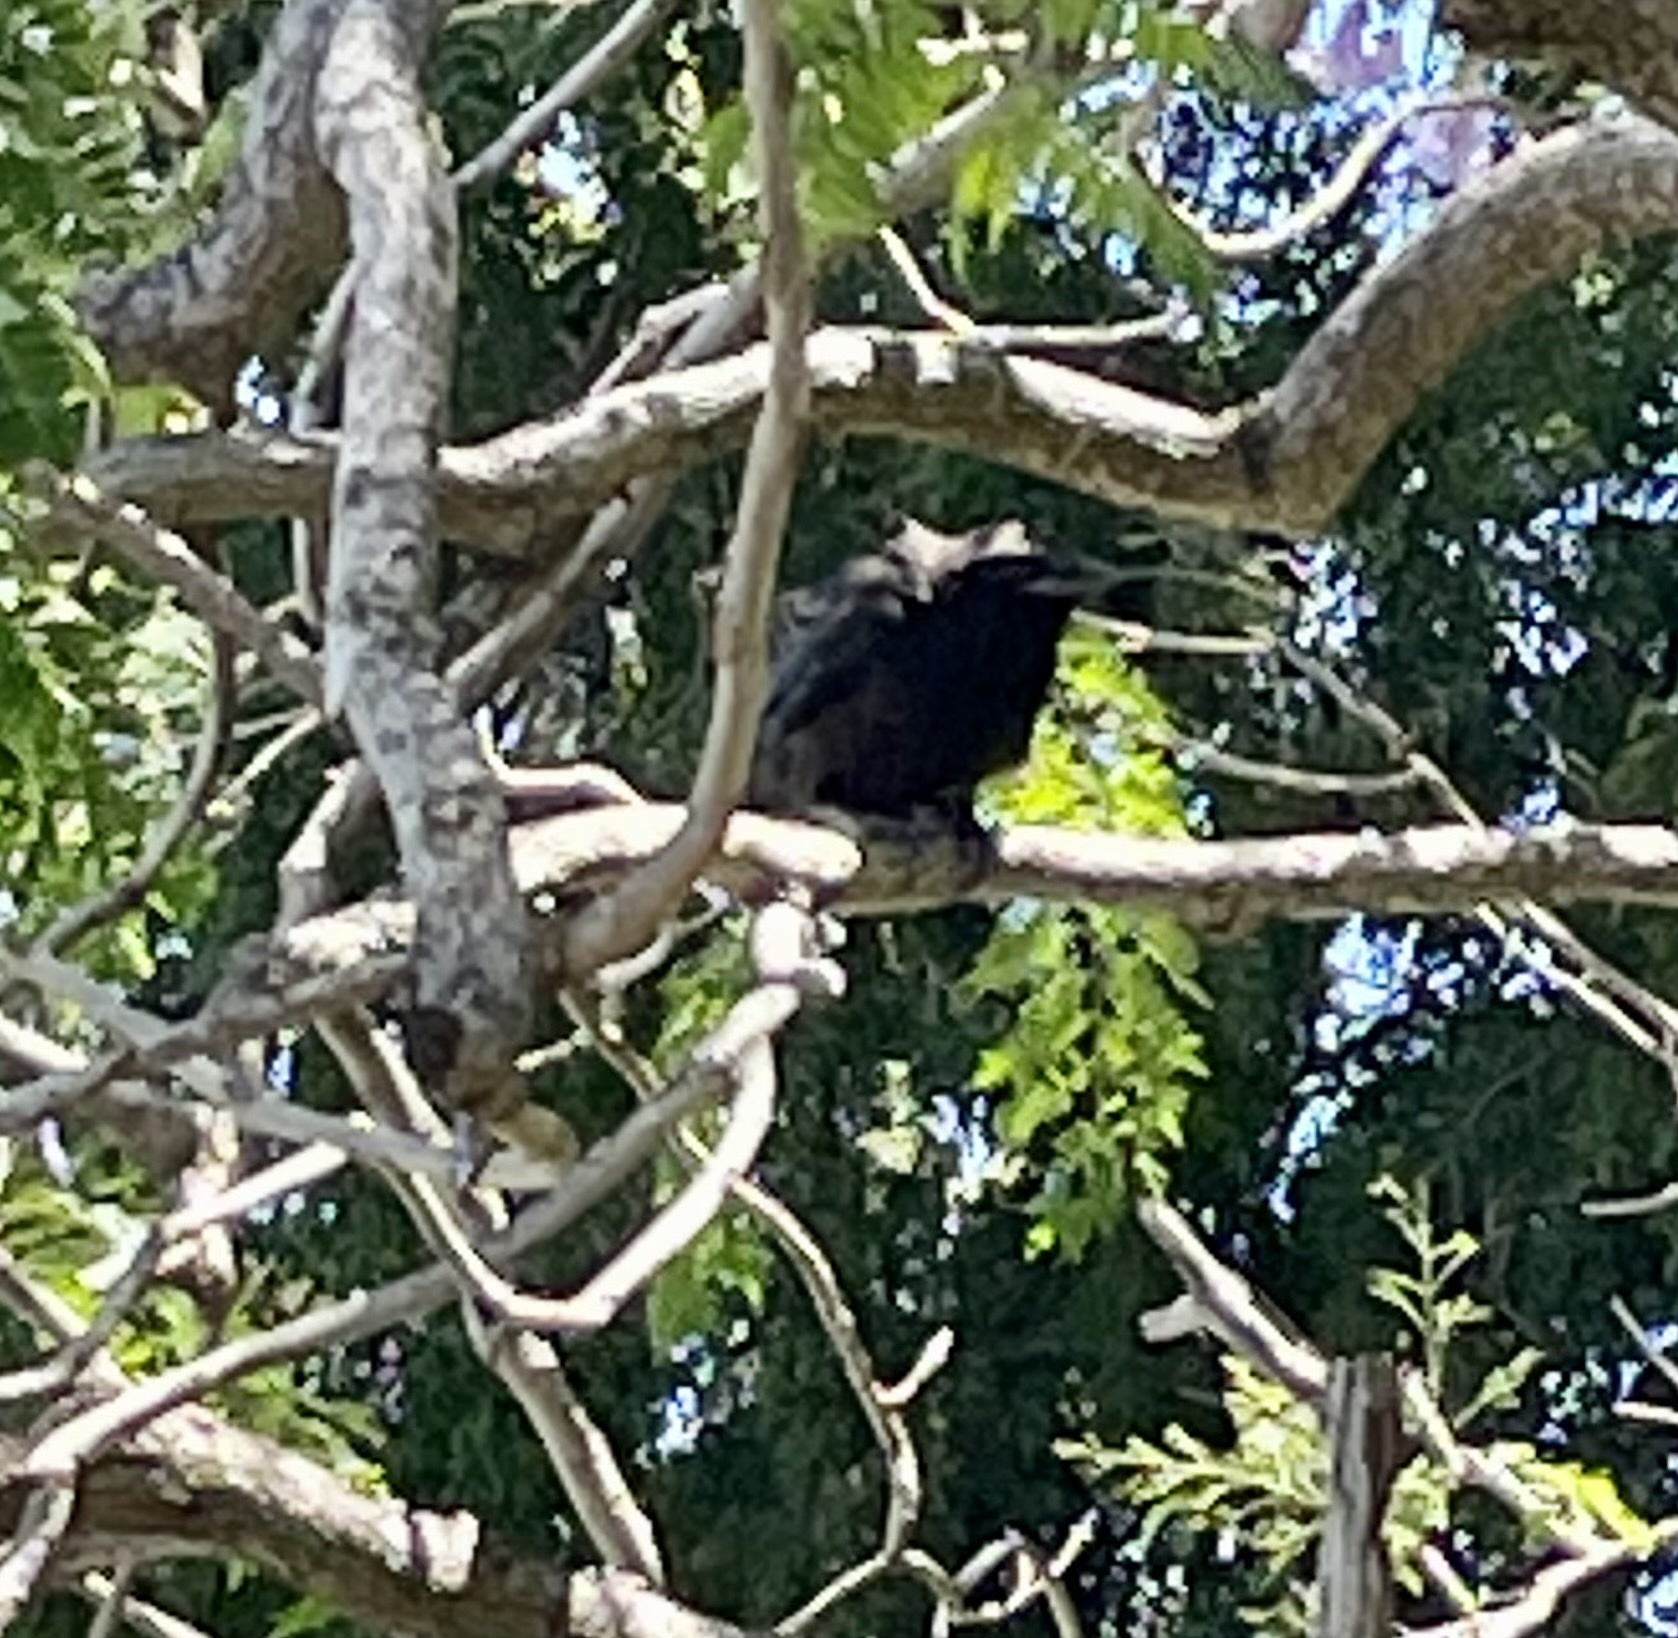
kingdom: Animalia
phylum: Chordata
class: Aves
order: Passeriformes
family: Corvidae
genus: Corvus
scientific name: Corvus orru
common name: Torresian crow
